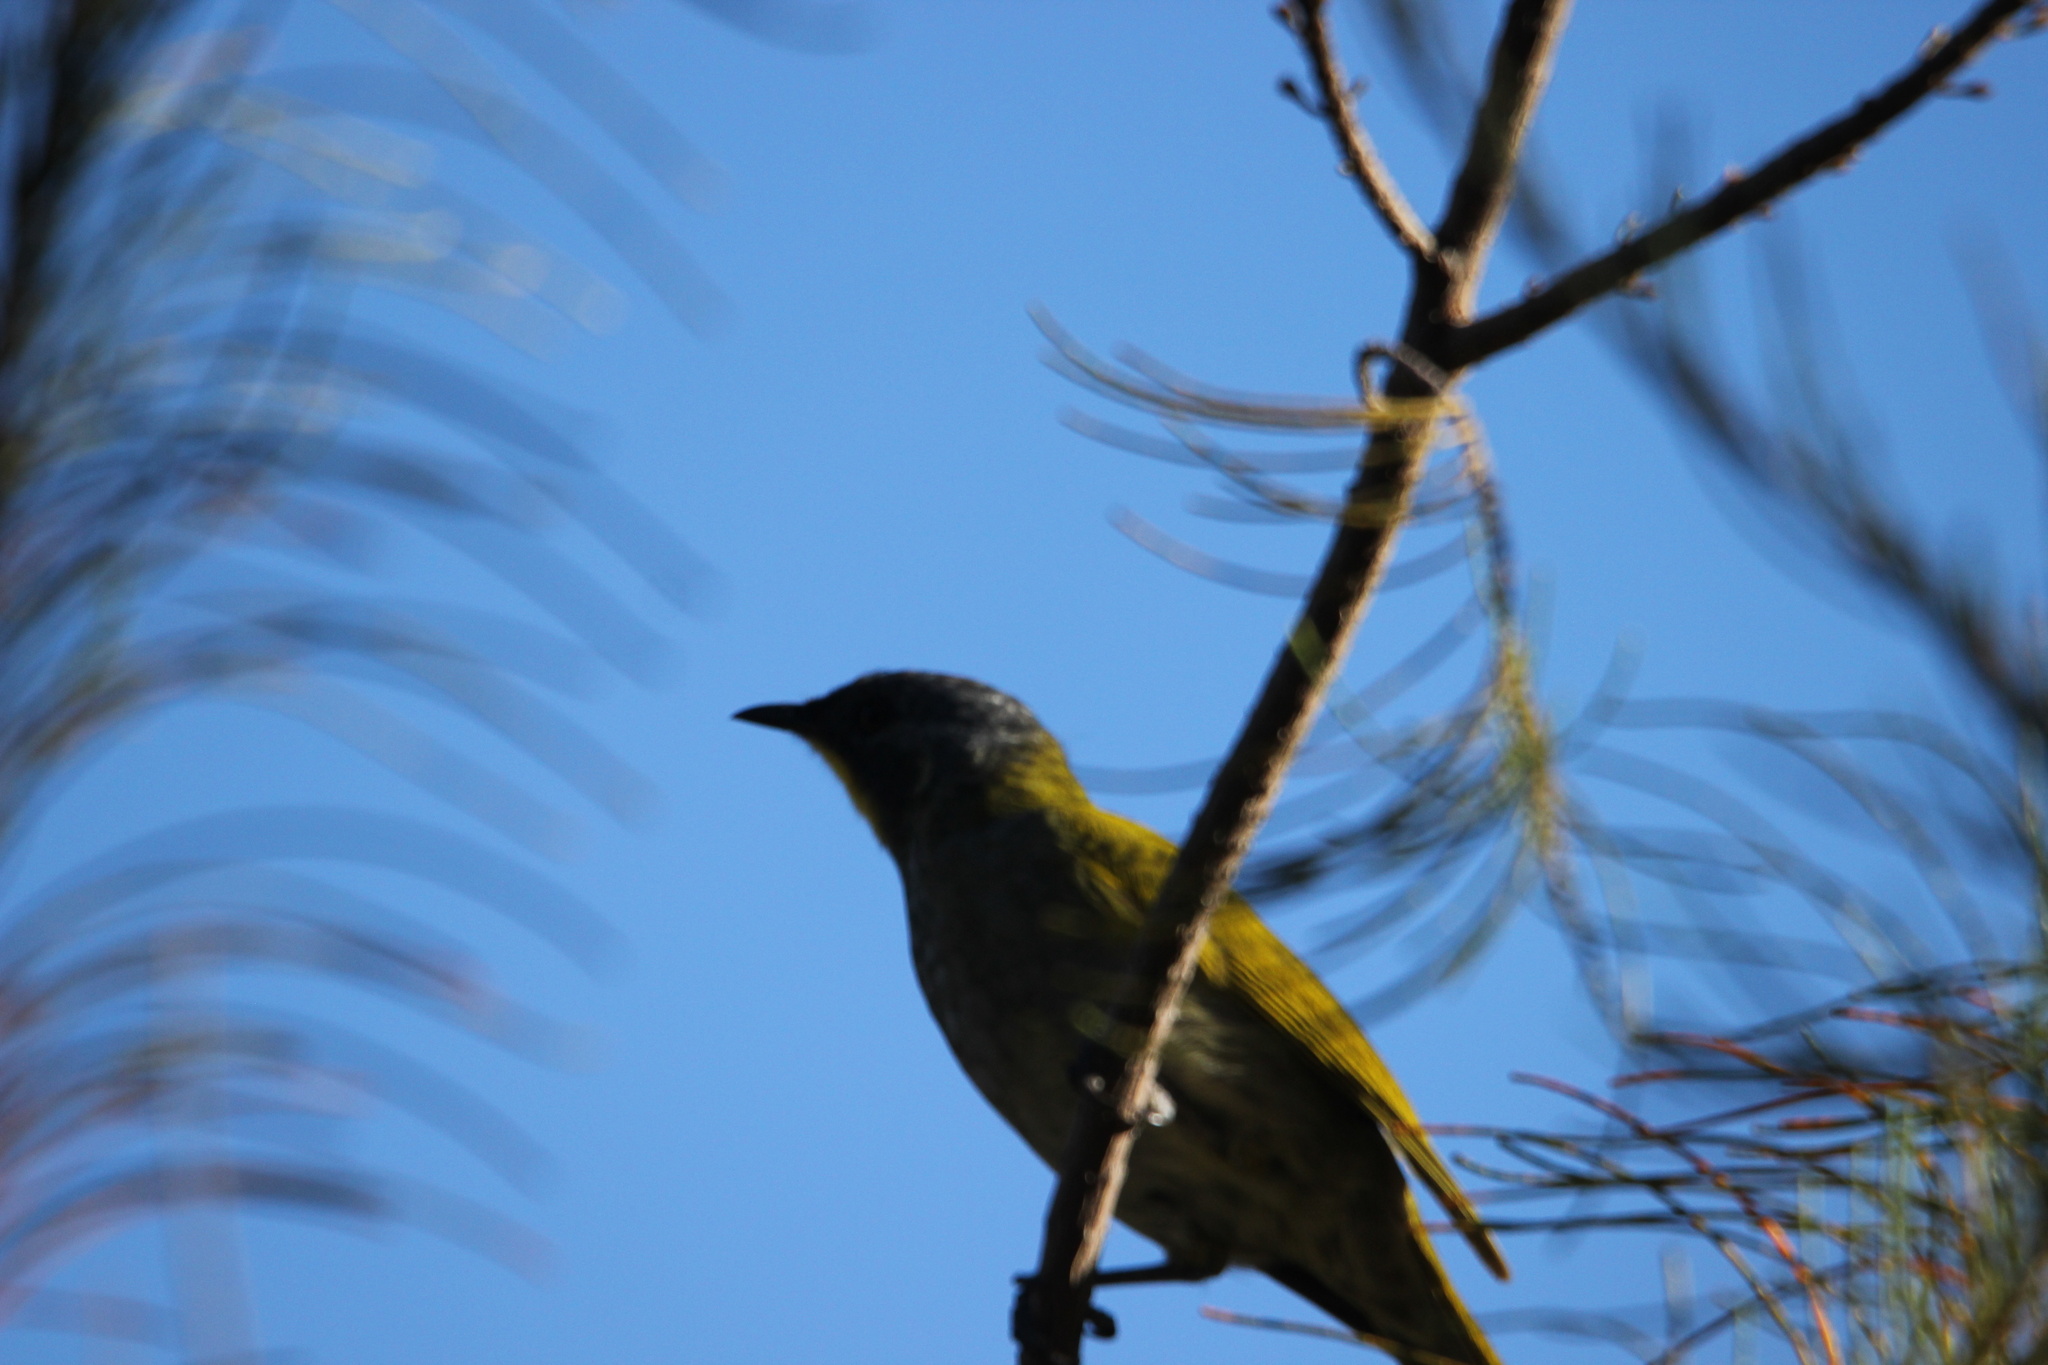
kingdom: Animalia
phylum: Chordata
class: Aves
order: Passeriformes
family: Meliphagidae
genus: Nesoptilotis
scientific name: Nesoptilotis flavicollis
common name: Yellow-throated honeyeater
